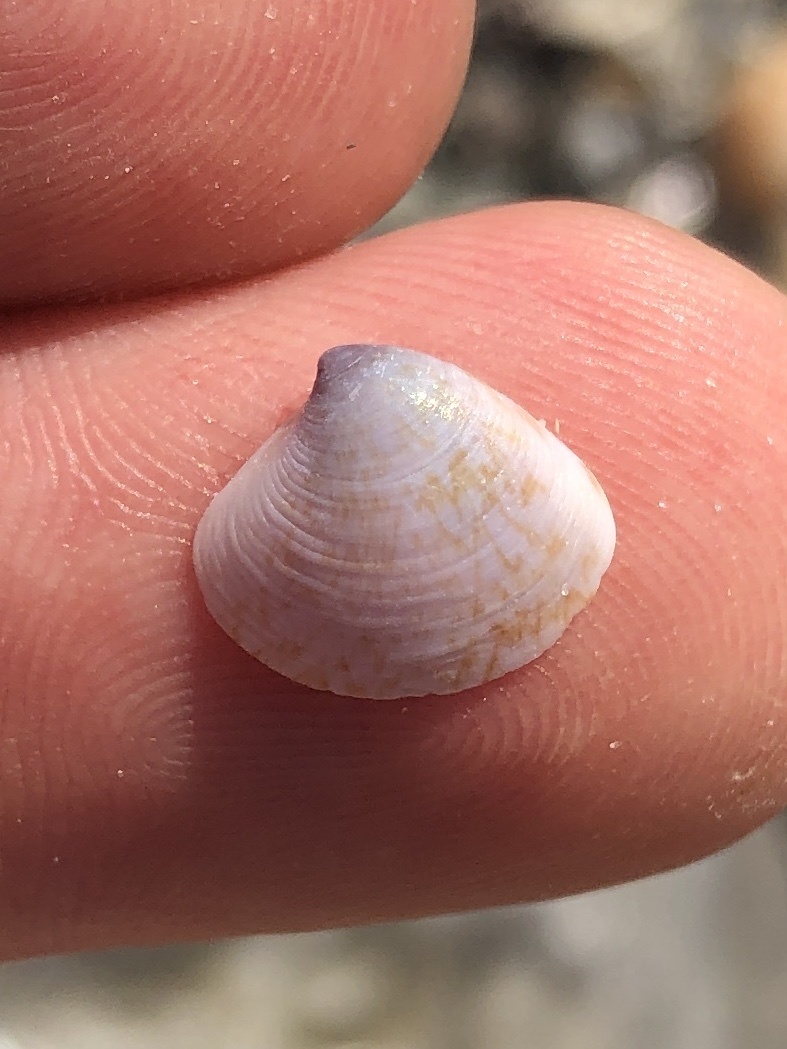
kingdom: Animalia
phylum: Mollusca
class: Bivalvia
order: Venerida
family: Veneridae
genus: Pitar
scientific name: Pitar simpsoni
